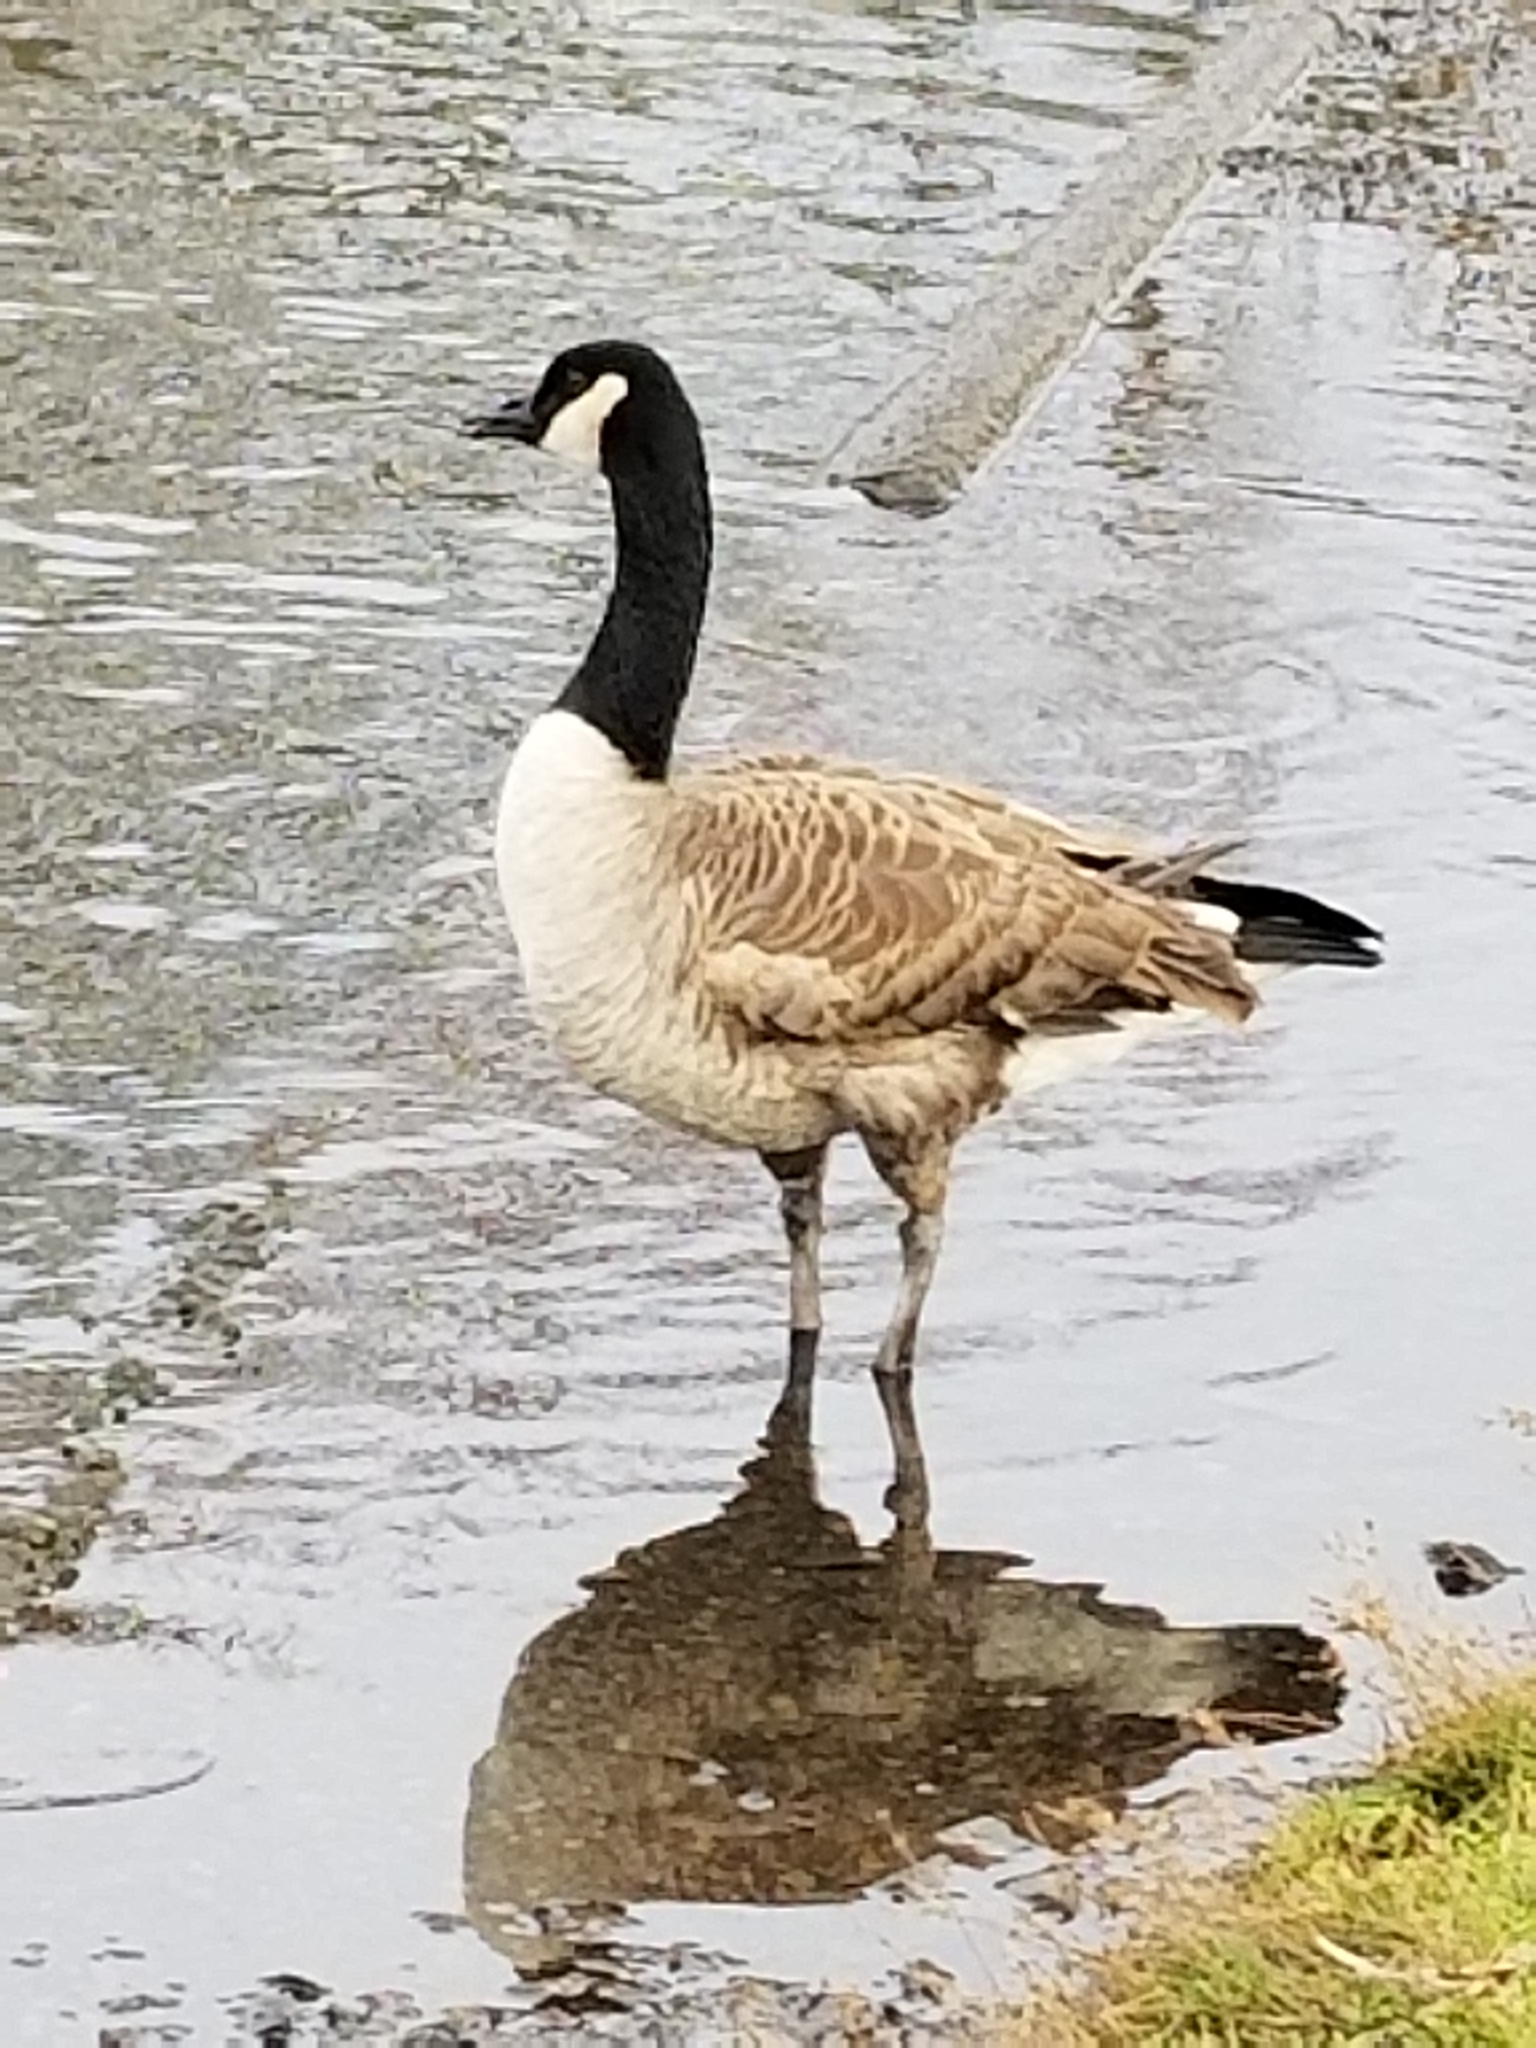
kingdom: Animalia
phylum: Chordata
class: Aves
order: Anseriformes
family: Anatidae
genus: Branta
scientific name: Branta canadensis
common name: Canada goose
